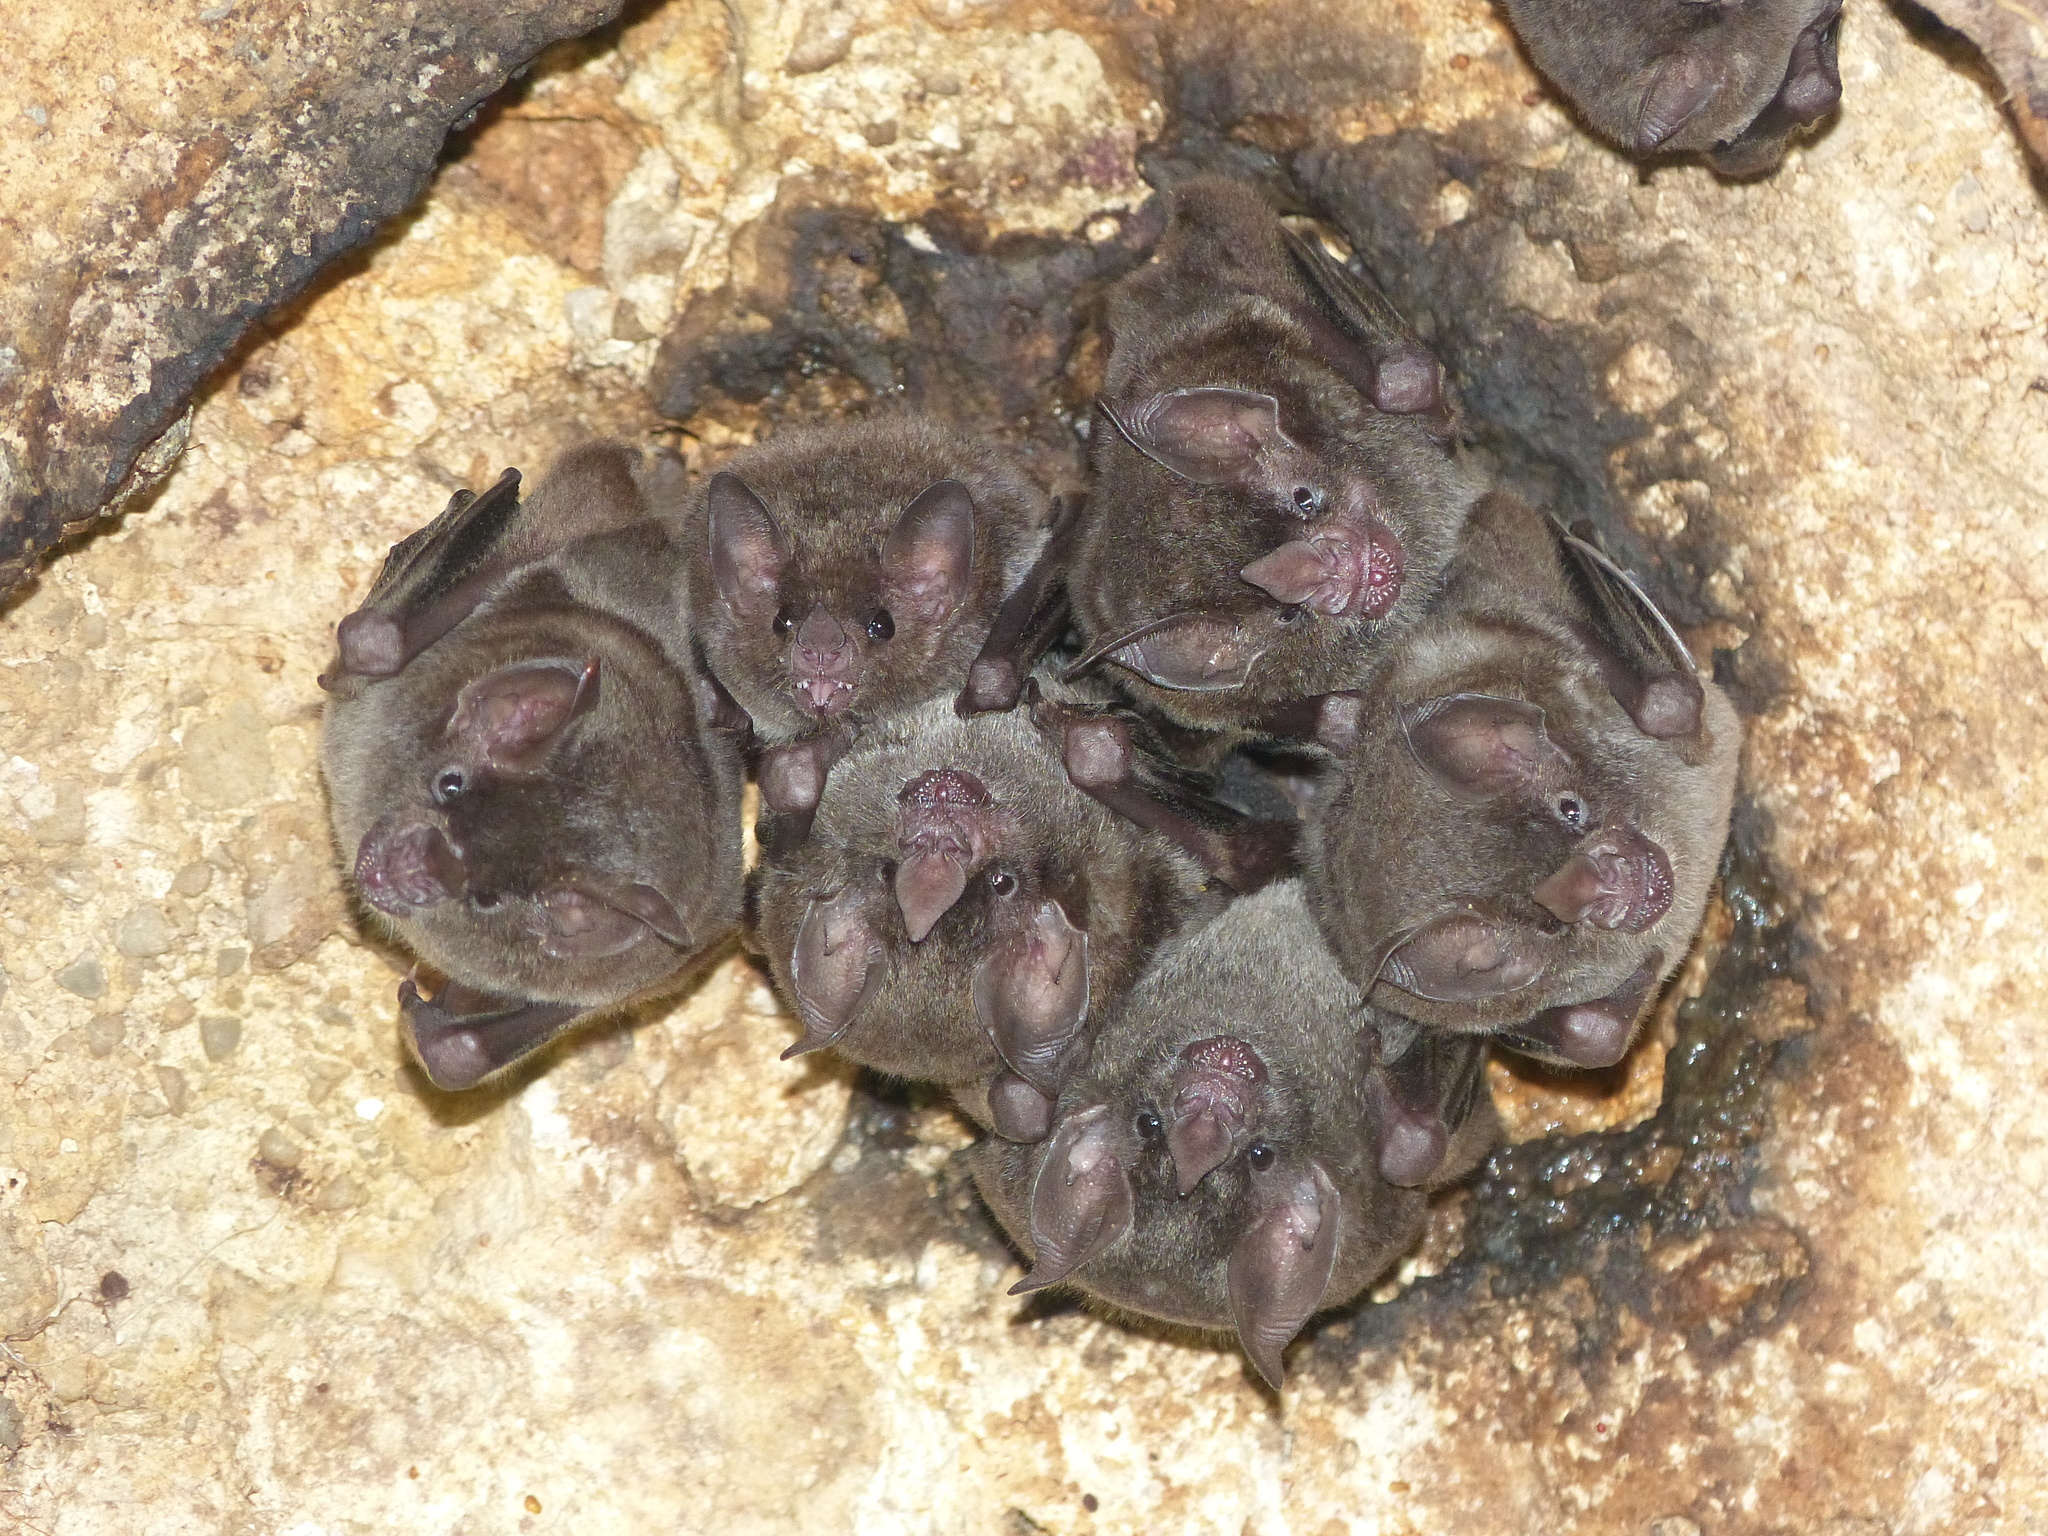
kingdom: Animalia
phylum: Chordata
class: Mammalia
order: Chiroptera
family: Phyllostomidae
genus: Glossophaga
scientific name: Glossophaga soricina
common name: Pallas's long-tongued bat
